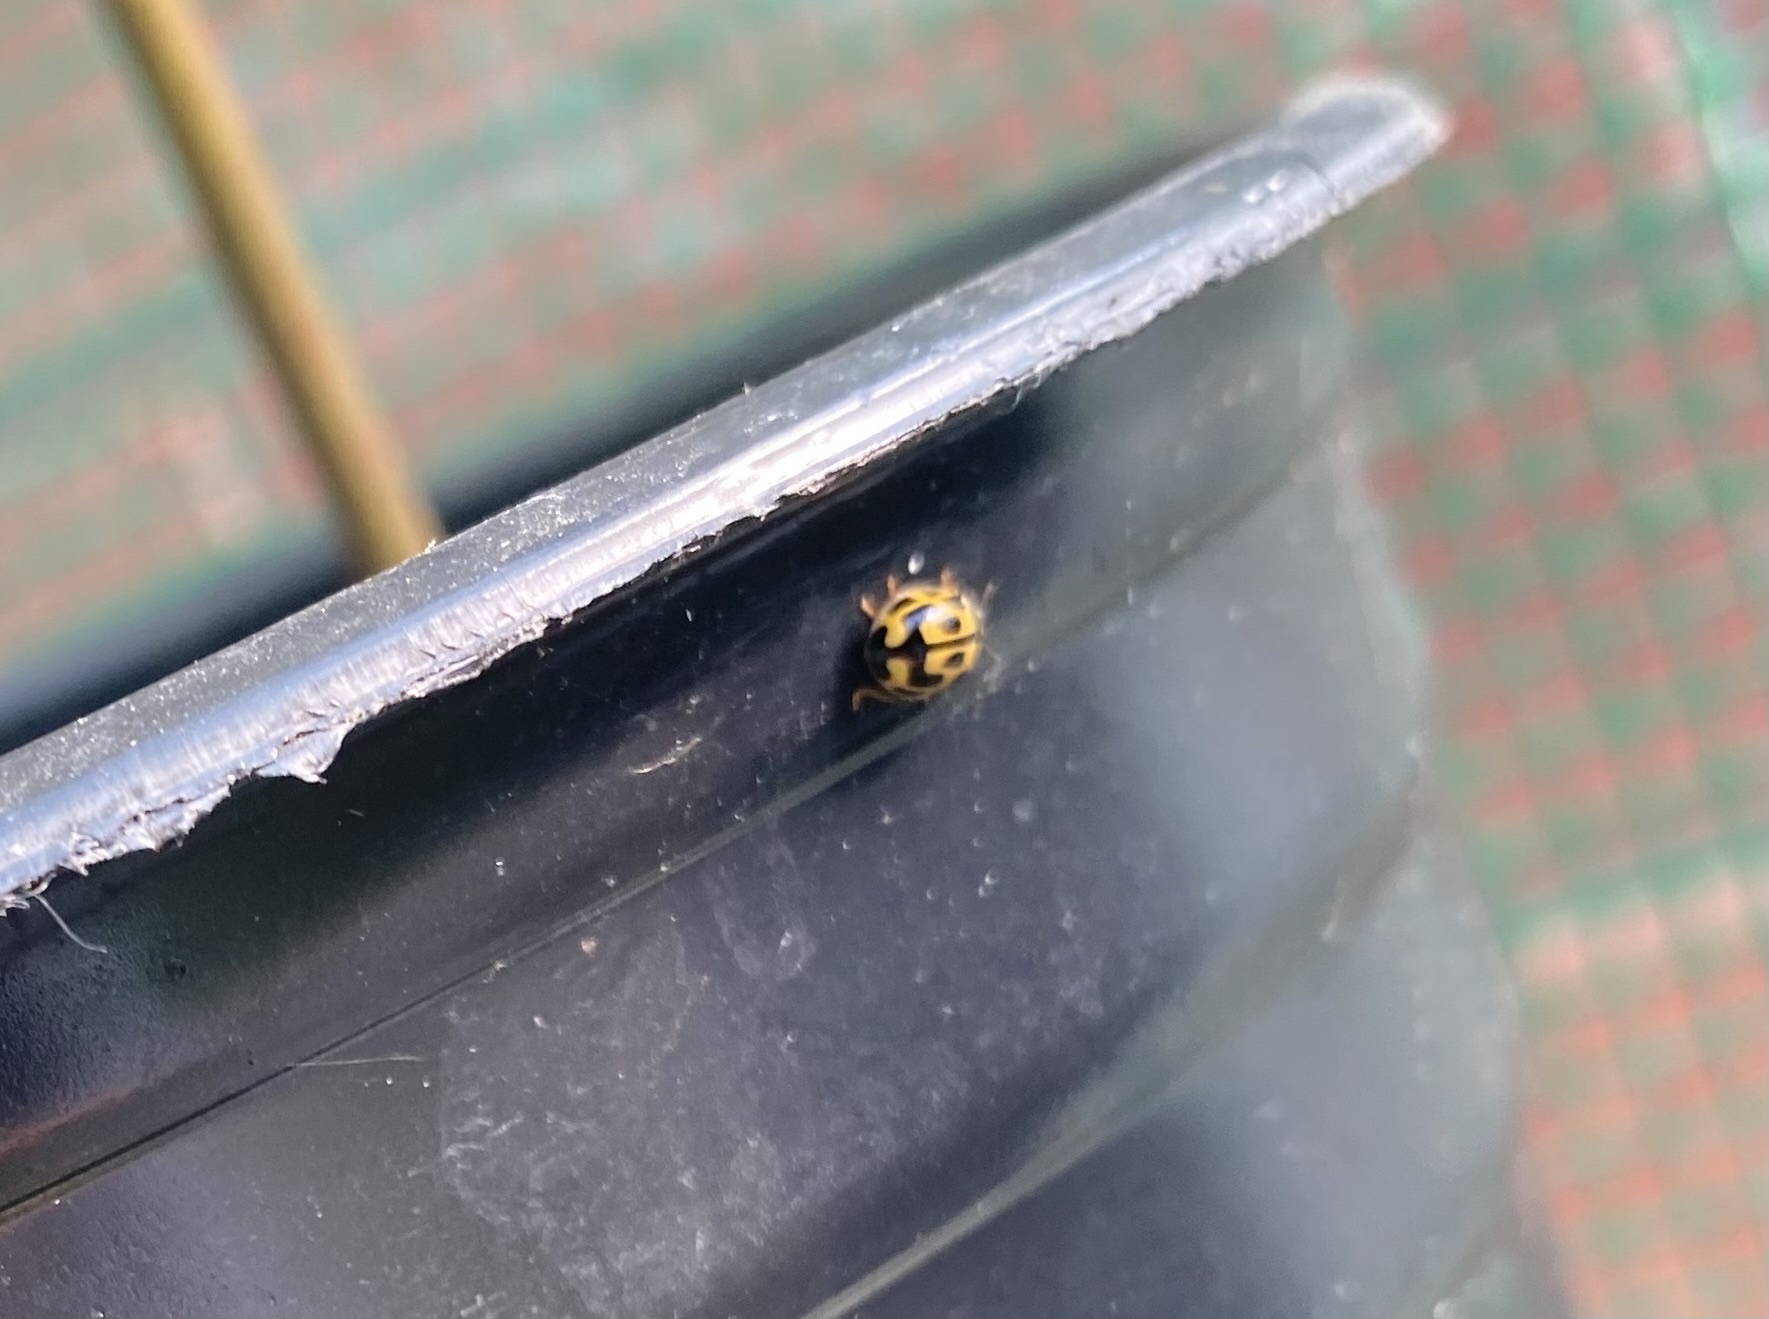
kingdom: Animalia
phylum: Arthropoda
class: Insecta
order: Coleoptera
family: Coccinellidae
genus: Propylaea
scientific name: Propylaea quatuordecimpunctata
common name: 14-spotted ladybird beetle
